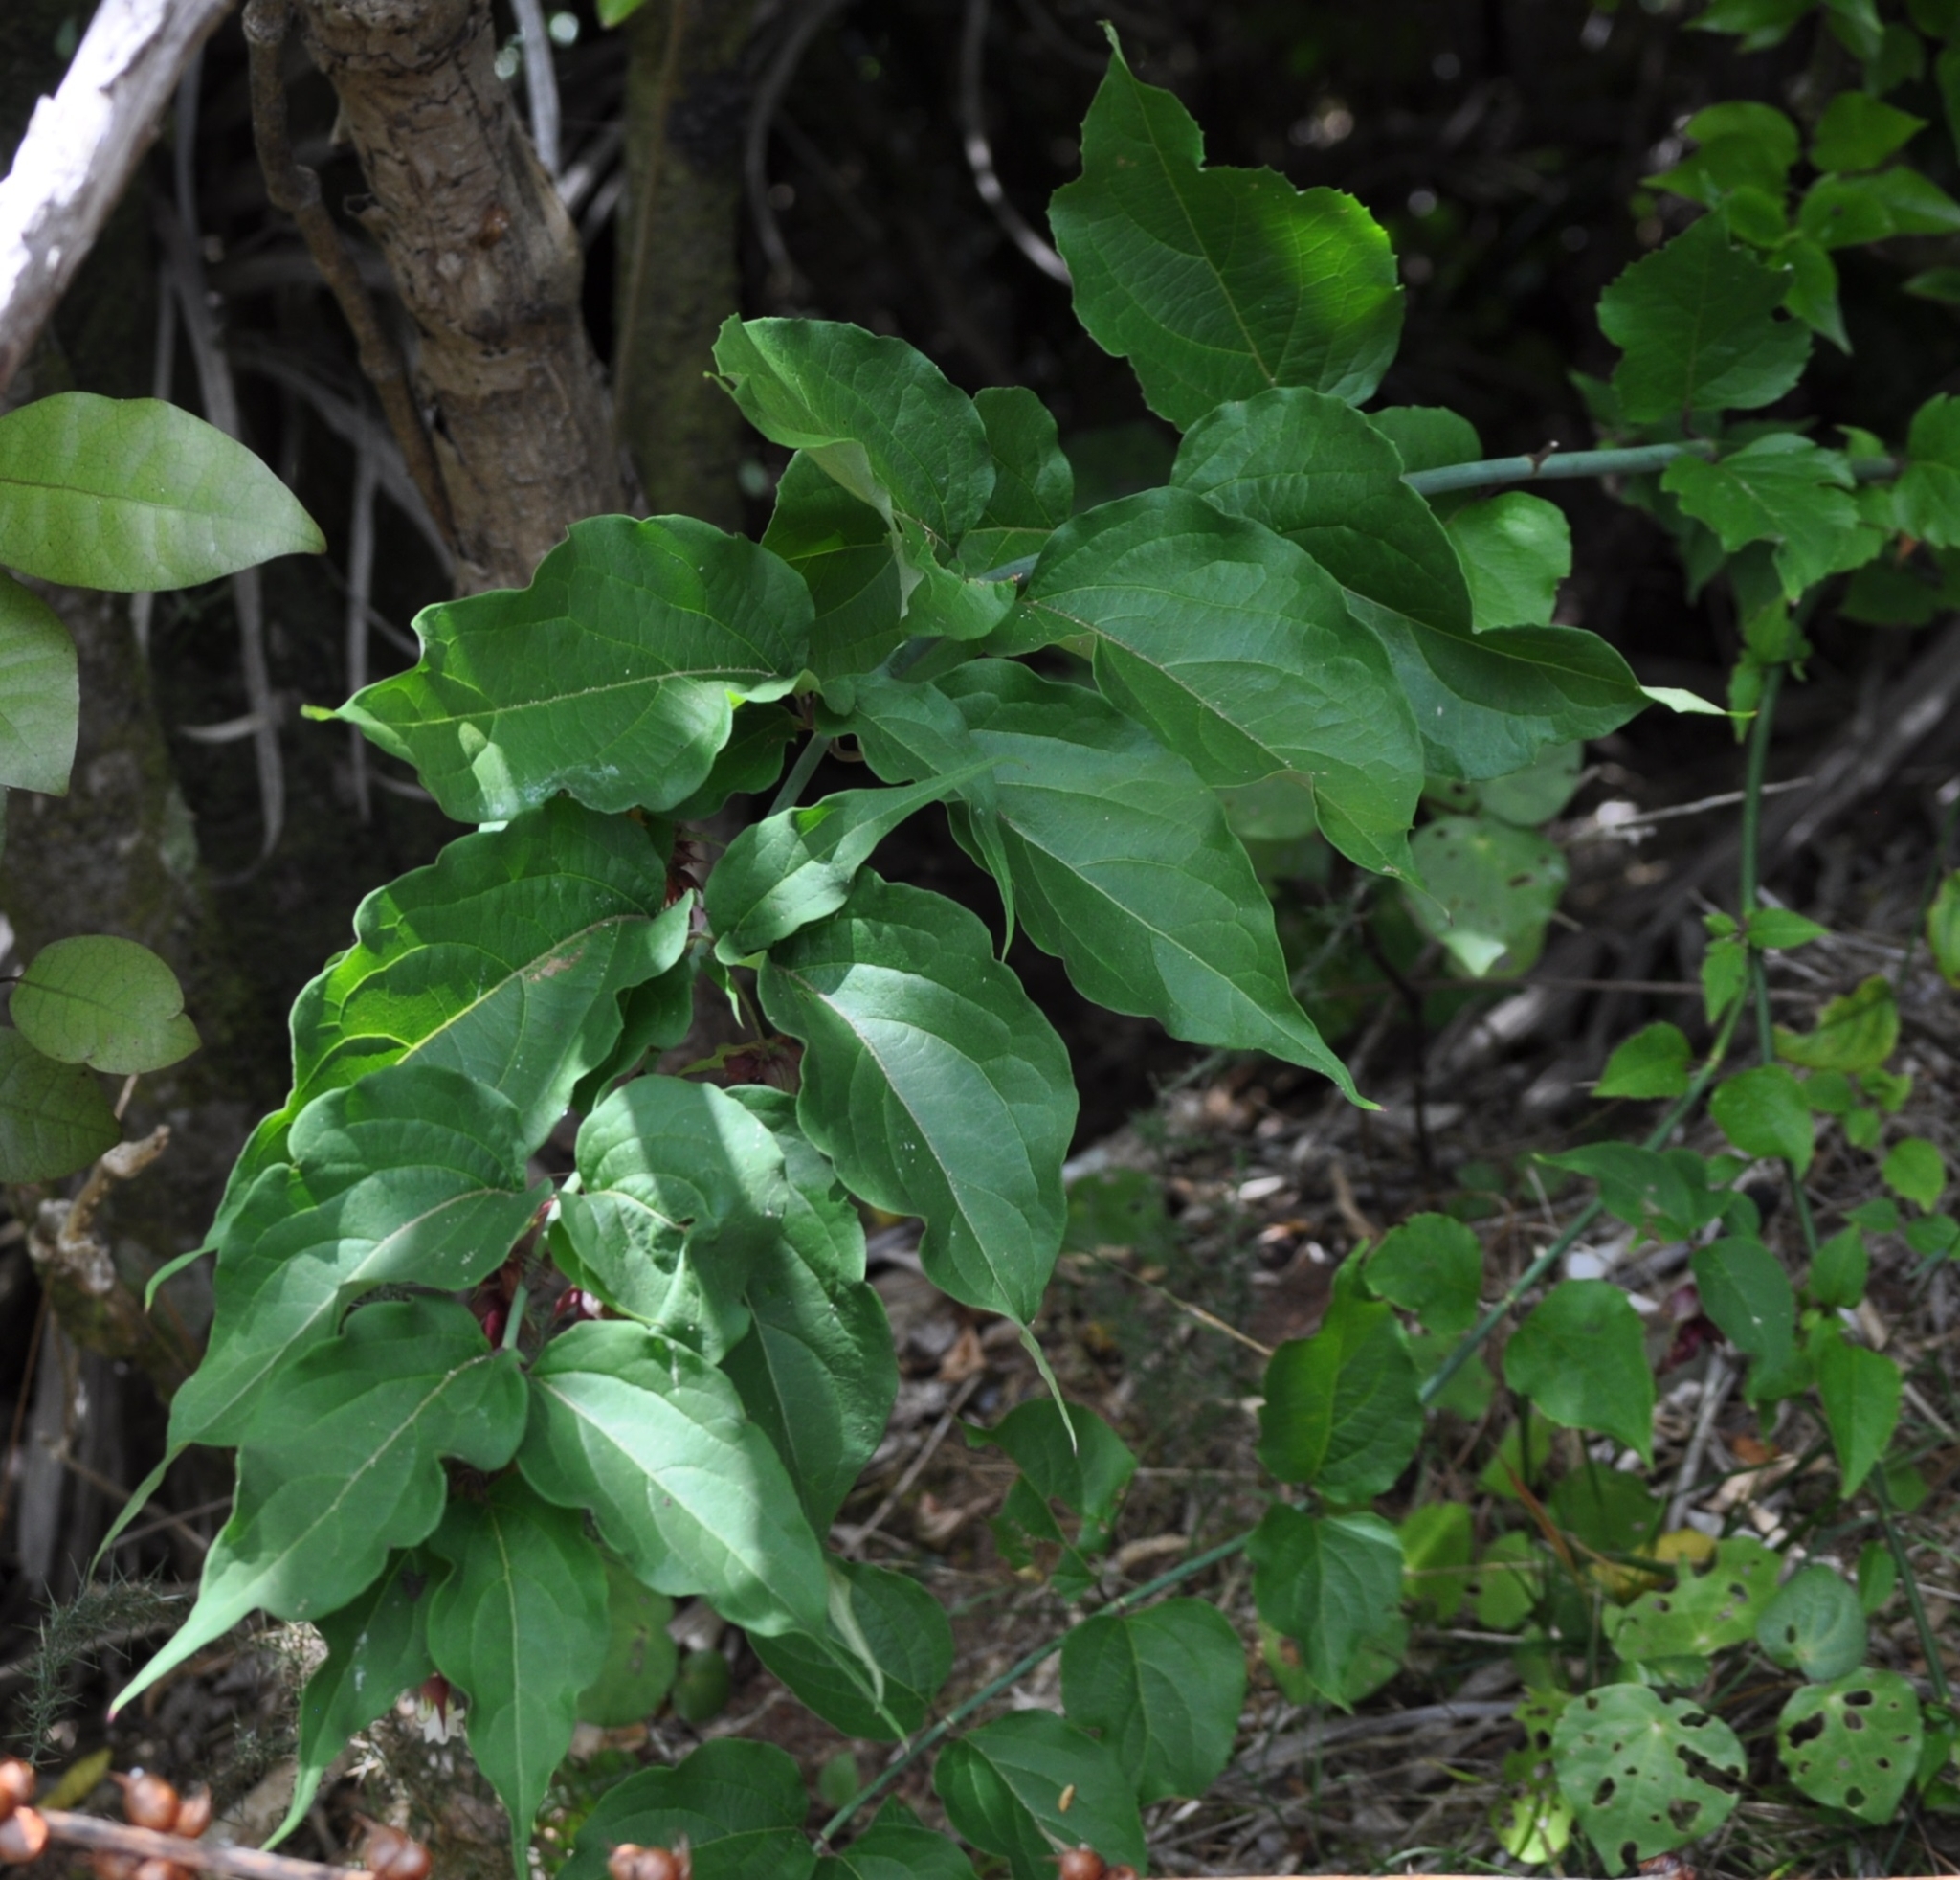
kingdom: Plantae
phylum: Tracheophyta
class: Magnoliopsida
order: Dipsacales
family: Caprifoliaceae
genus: Leycesteria
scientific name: Leycesteria formosa
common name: Himalayan honeysuckle
